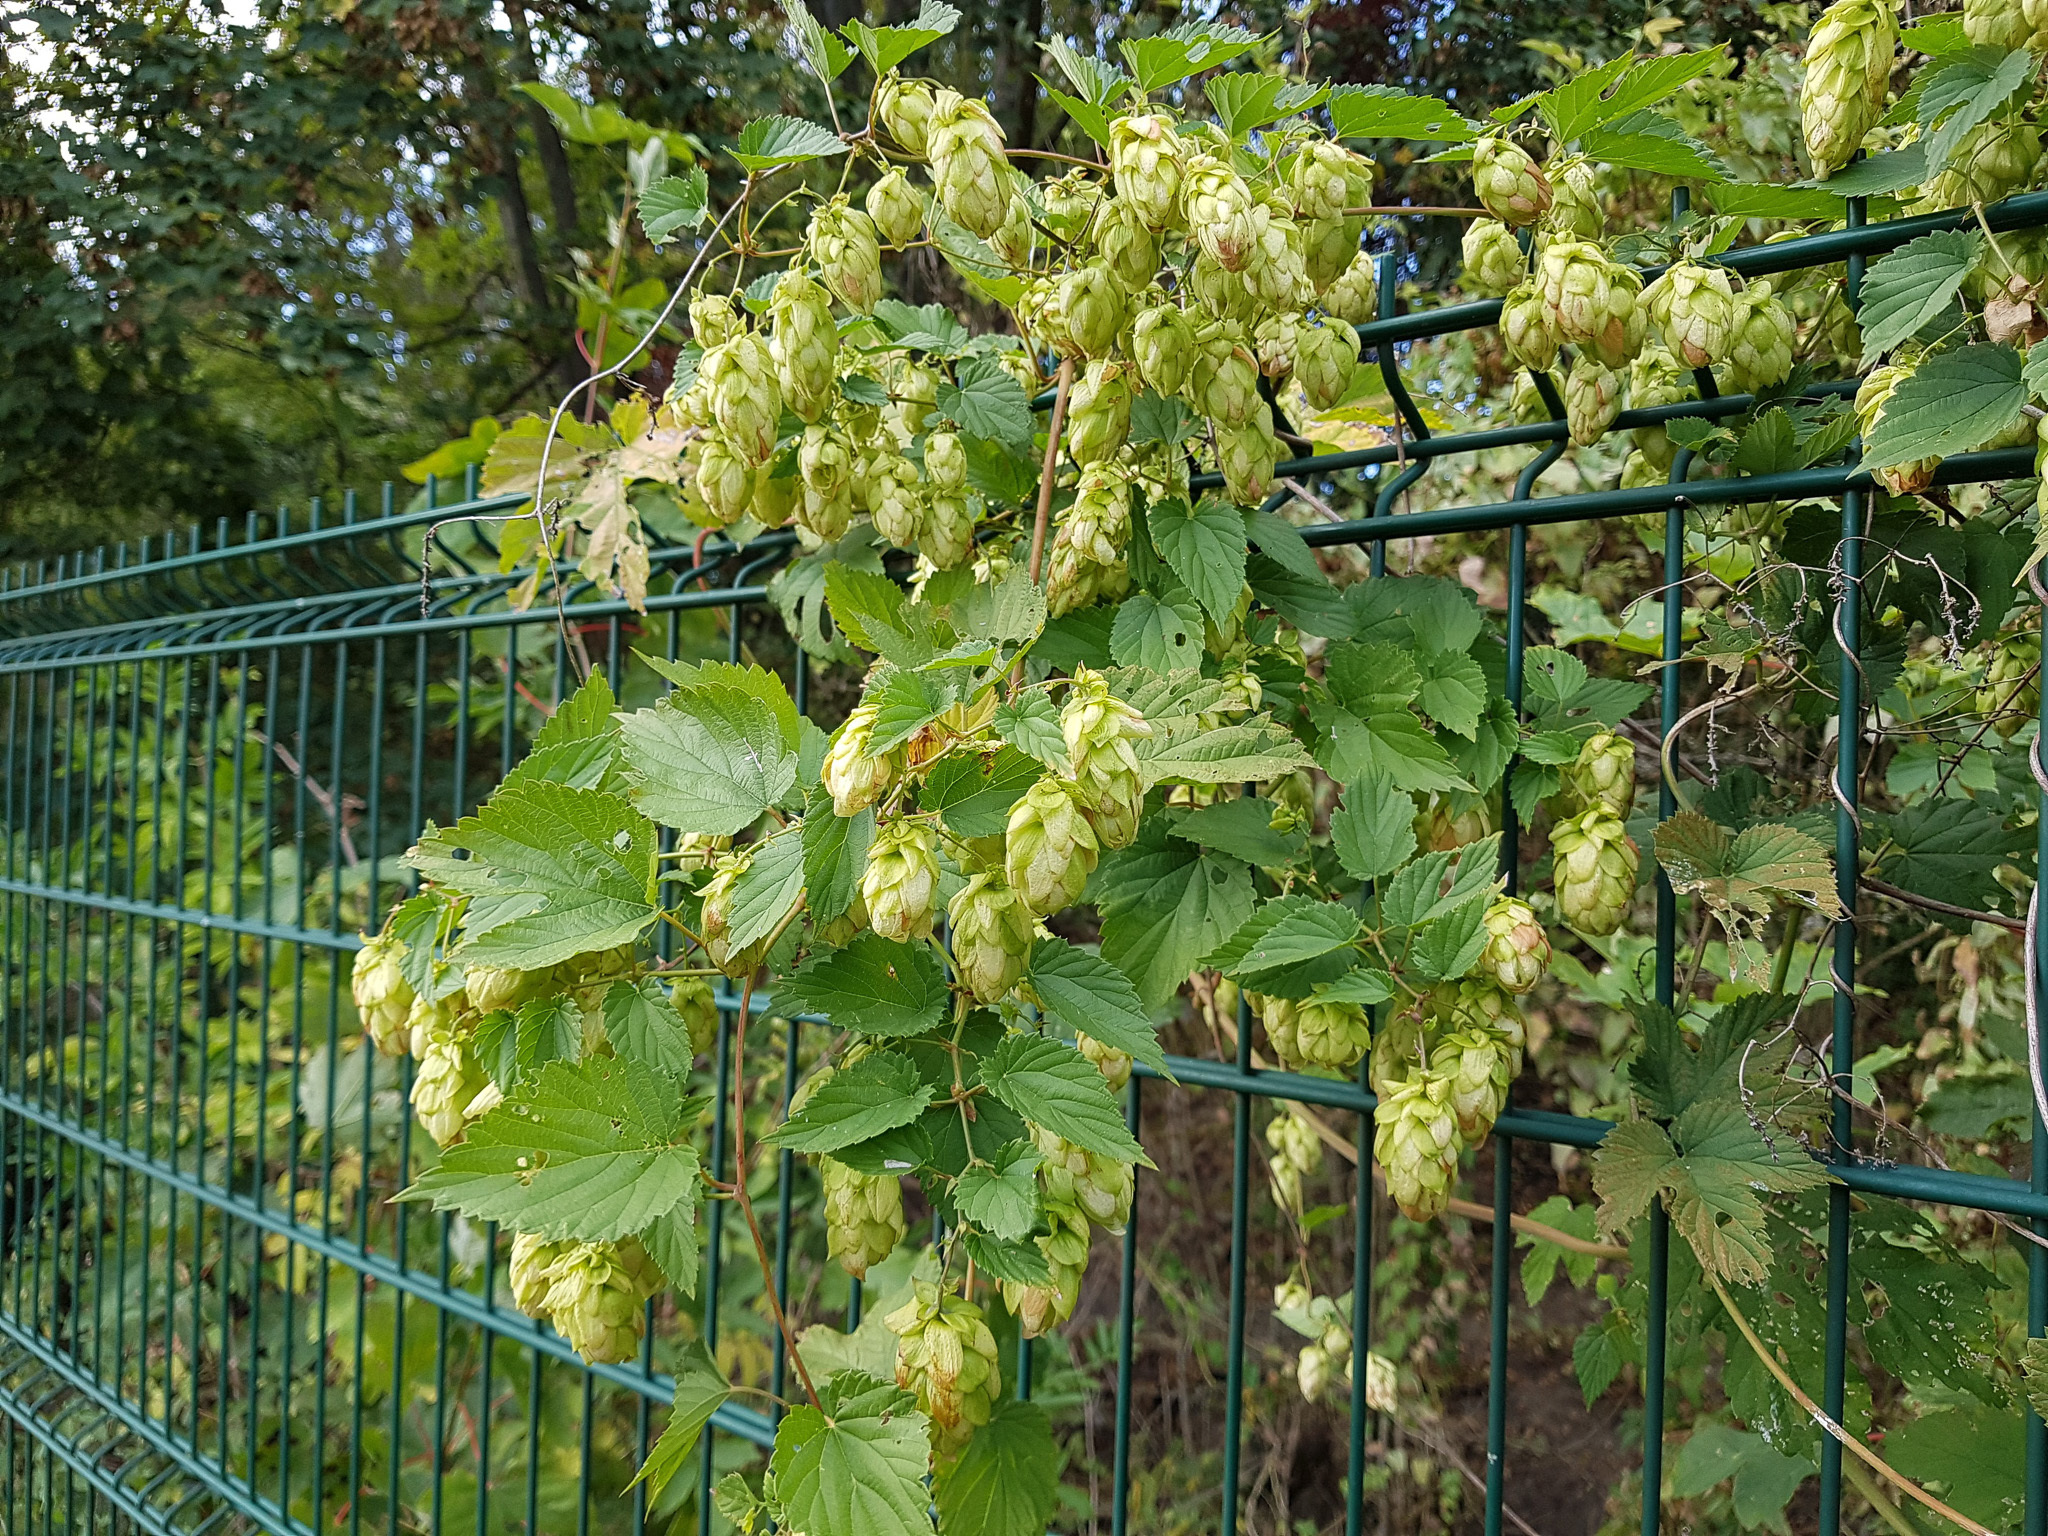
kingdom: Plantae
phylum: Tracheophyta
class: Magnoliopsida
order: Rosales
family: Cannabaceae
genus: Humulus
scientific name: Humulus lupulus
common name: Hop
